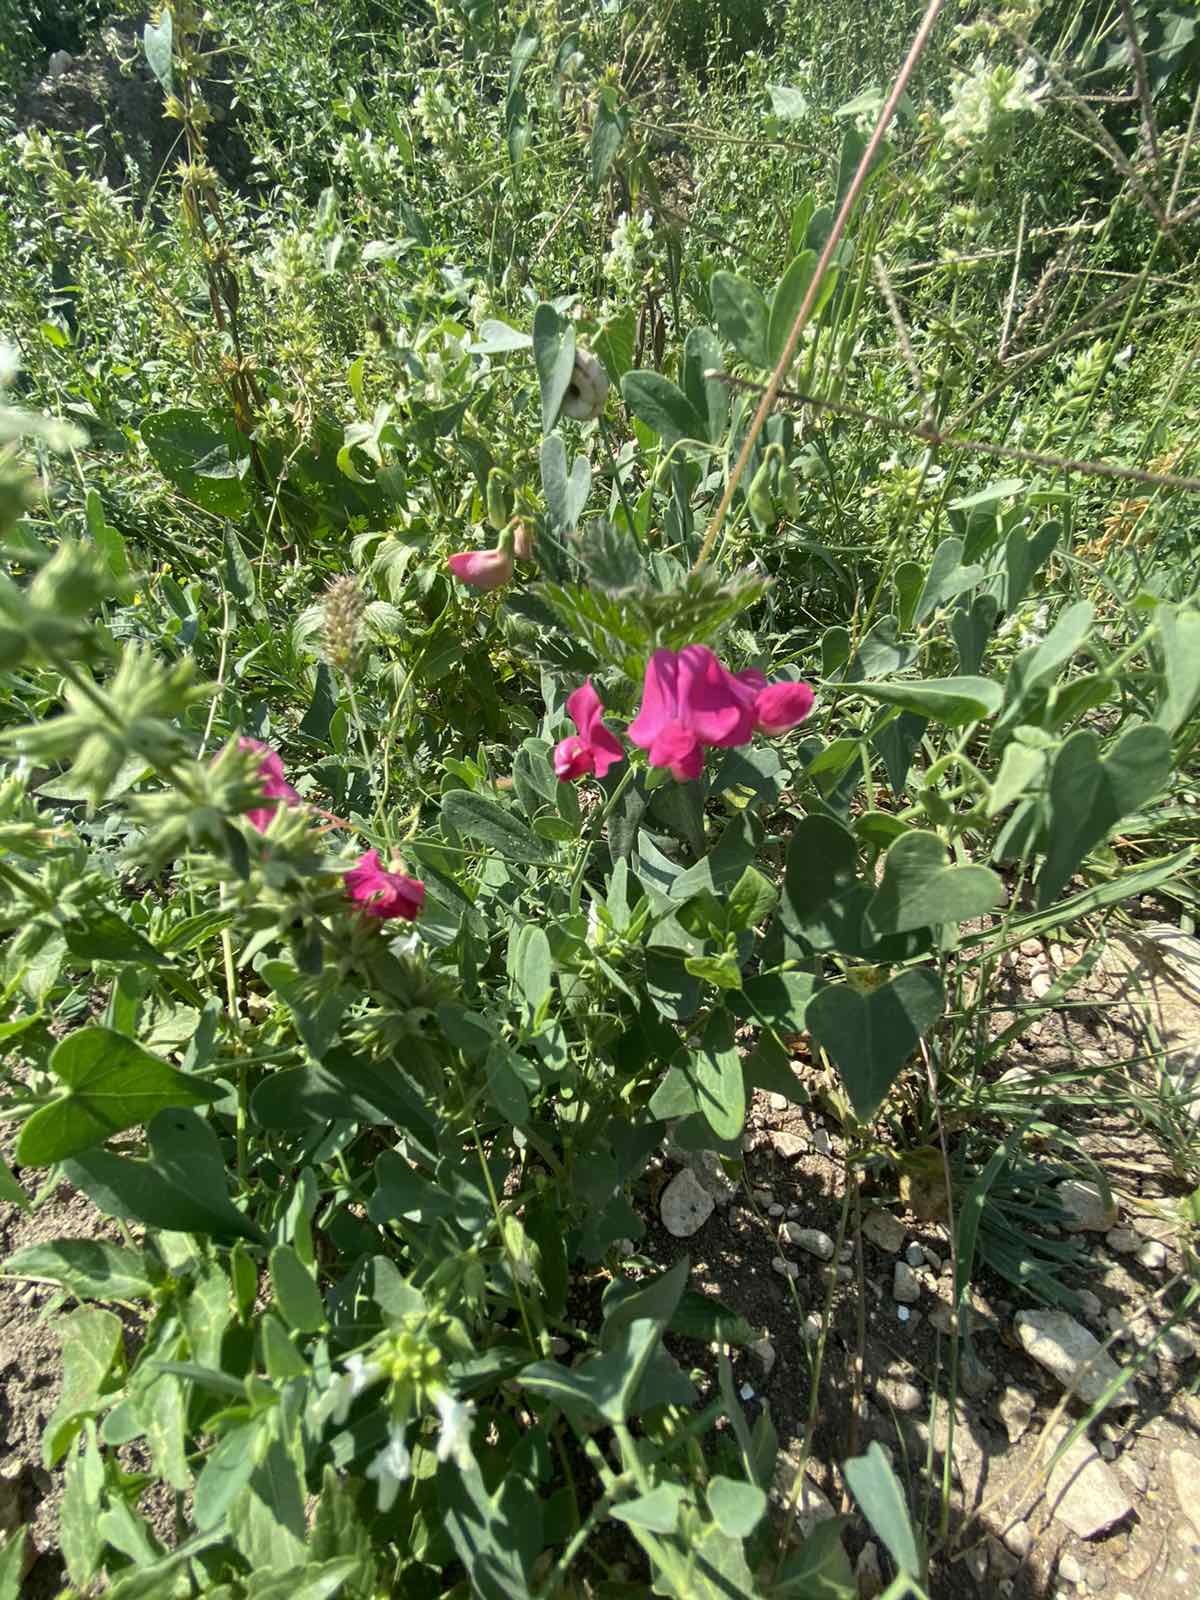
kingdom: Plantae
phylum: Tracheophyta
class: Magnoliopsida
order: Fabales
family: Fabaceae
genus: Lathyrus
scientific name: Lathyrus tuberosus
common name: Tuberous pea
